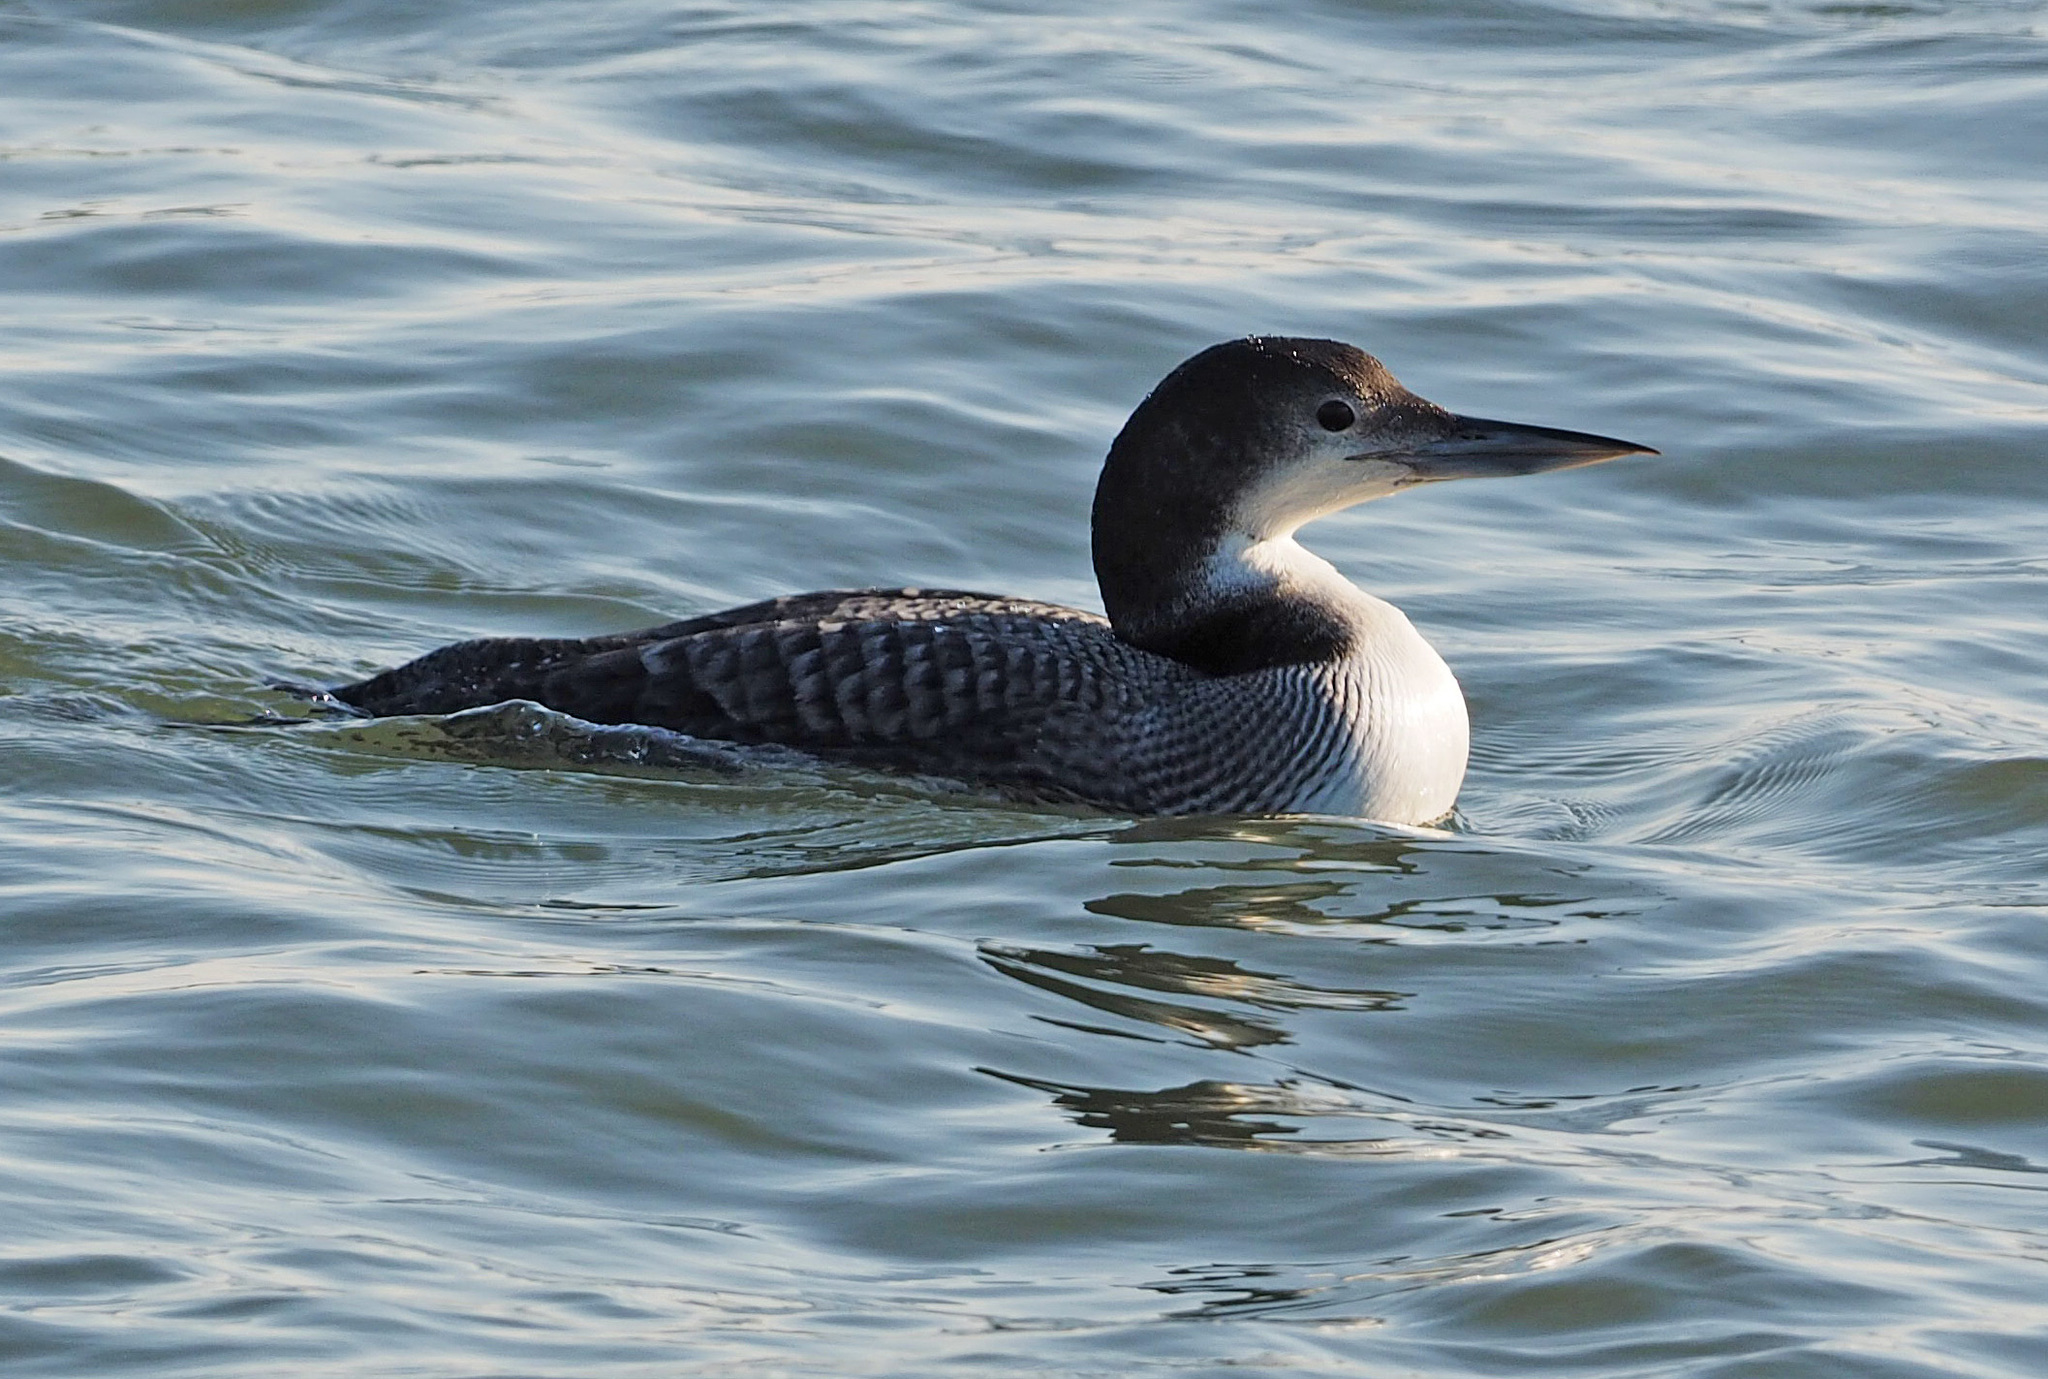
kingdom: Animalia
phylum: Chordata
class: Aves
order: Gaviiformes
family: Gaviidae
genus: Gavia
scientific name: Gavia immer
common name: Common loon
